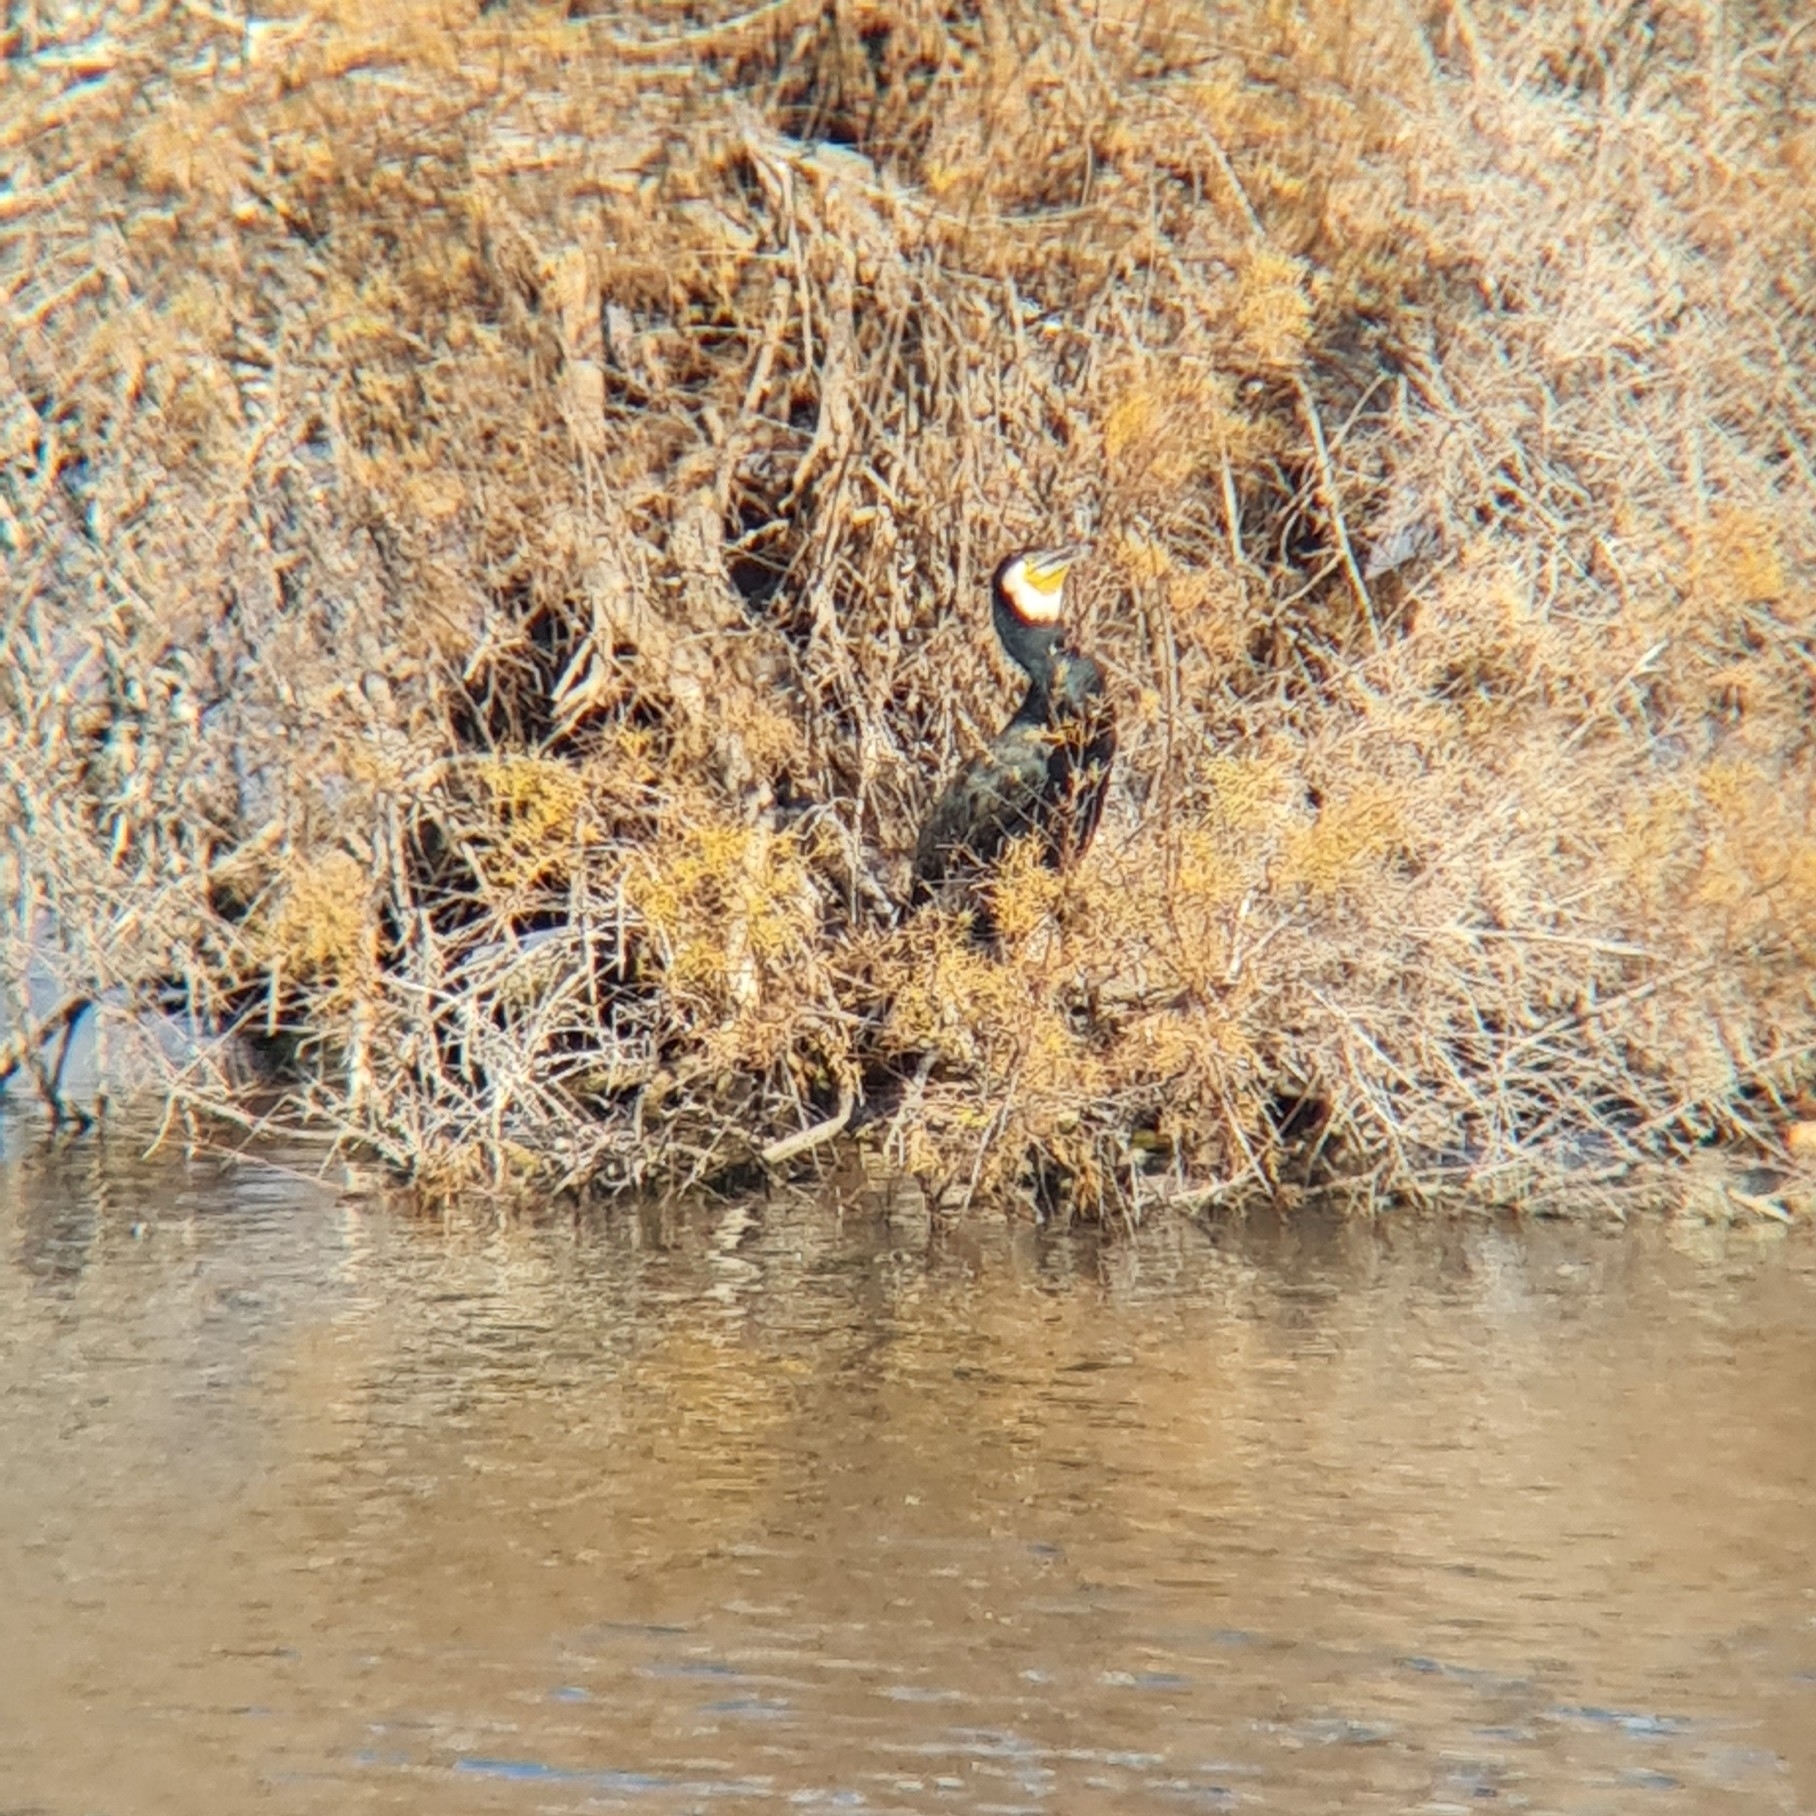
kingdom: Animalia
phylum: Chordata
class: Aves
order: Suliformes
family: Phalacrocoracidae
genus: Phalacrocorax
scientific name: Phalacrocorax carbo
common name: Great cormorant
